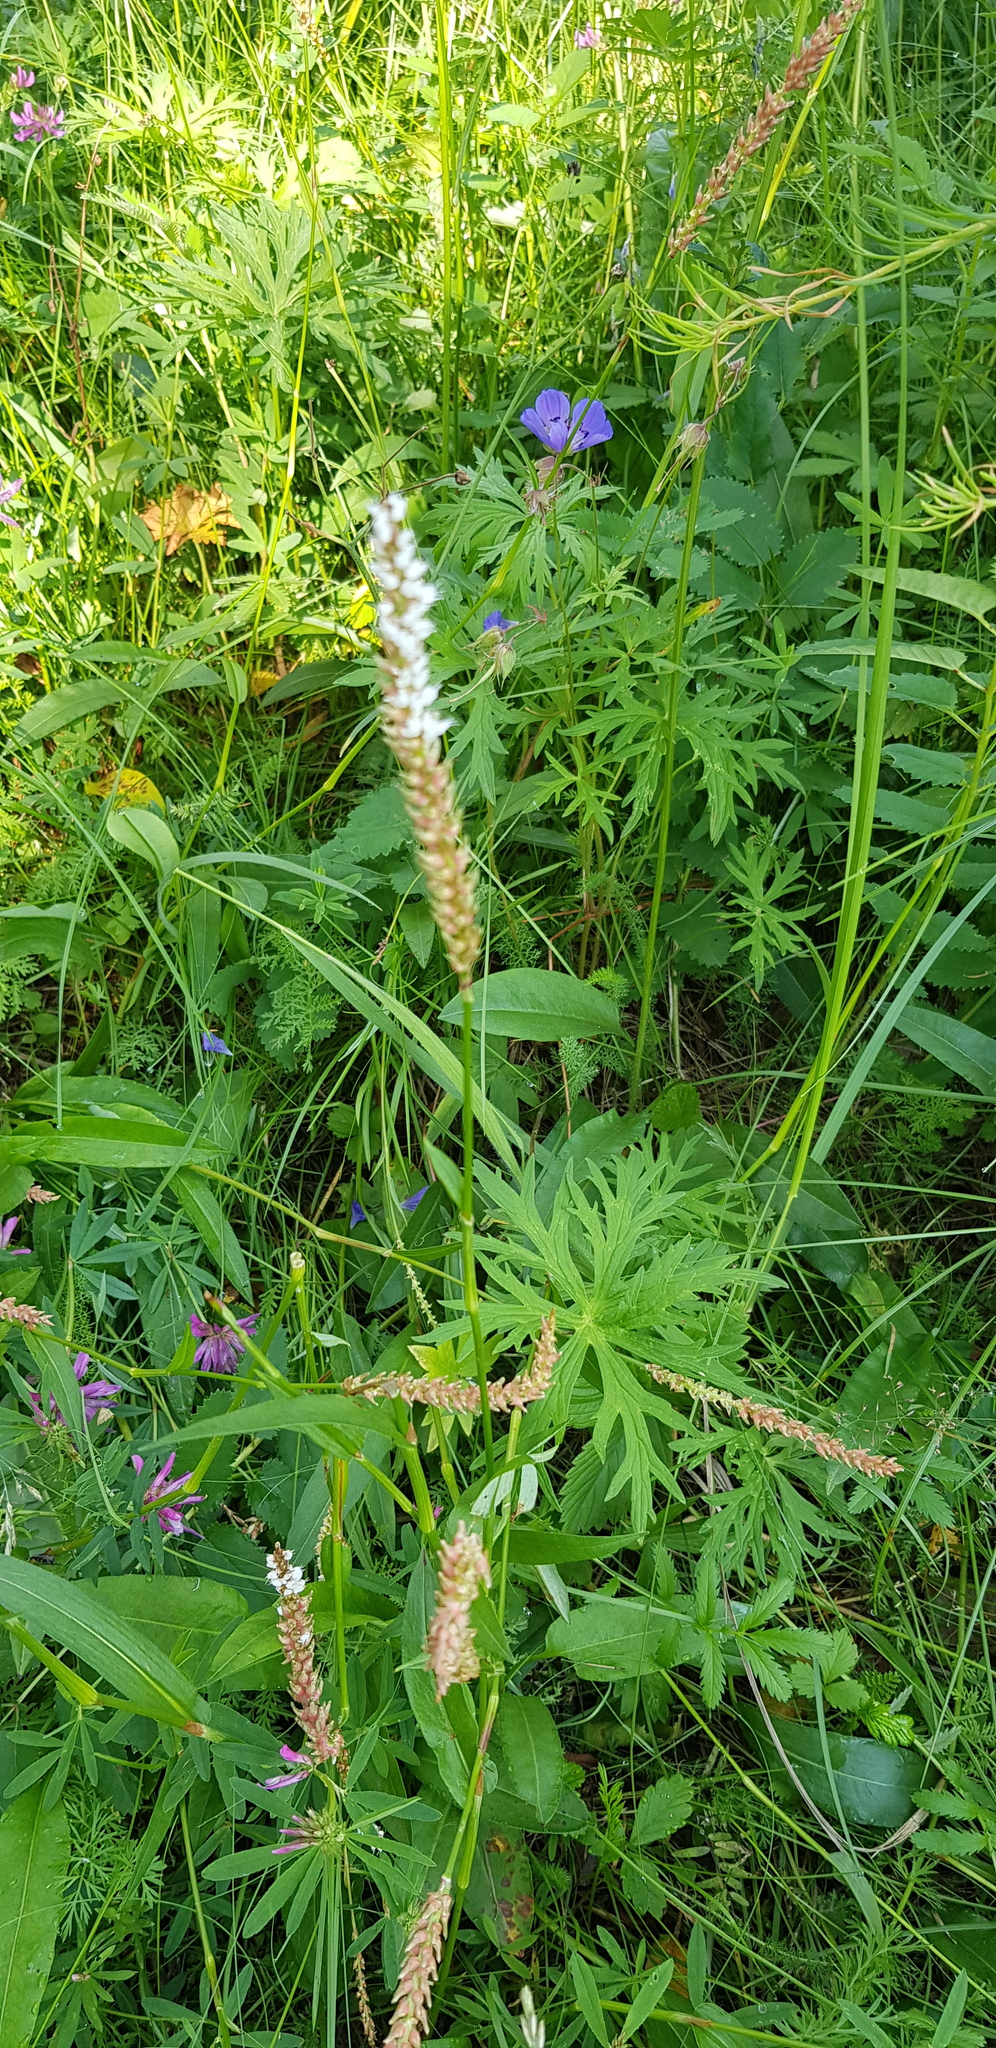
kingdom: Plantae
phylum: Tracheophyta
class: Magnoliopsida
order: Caryophyllales
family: Polygonaceae
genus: Bistorta
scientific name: Bistorta vivipara
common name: Alpine bistort
